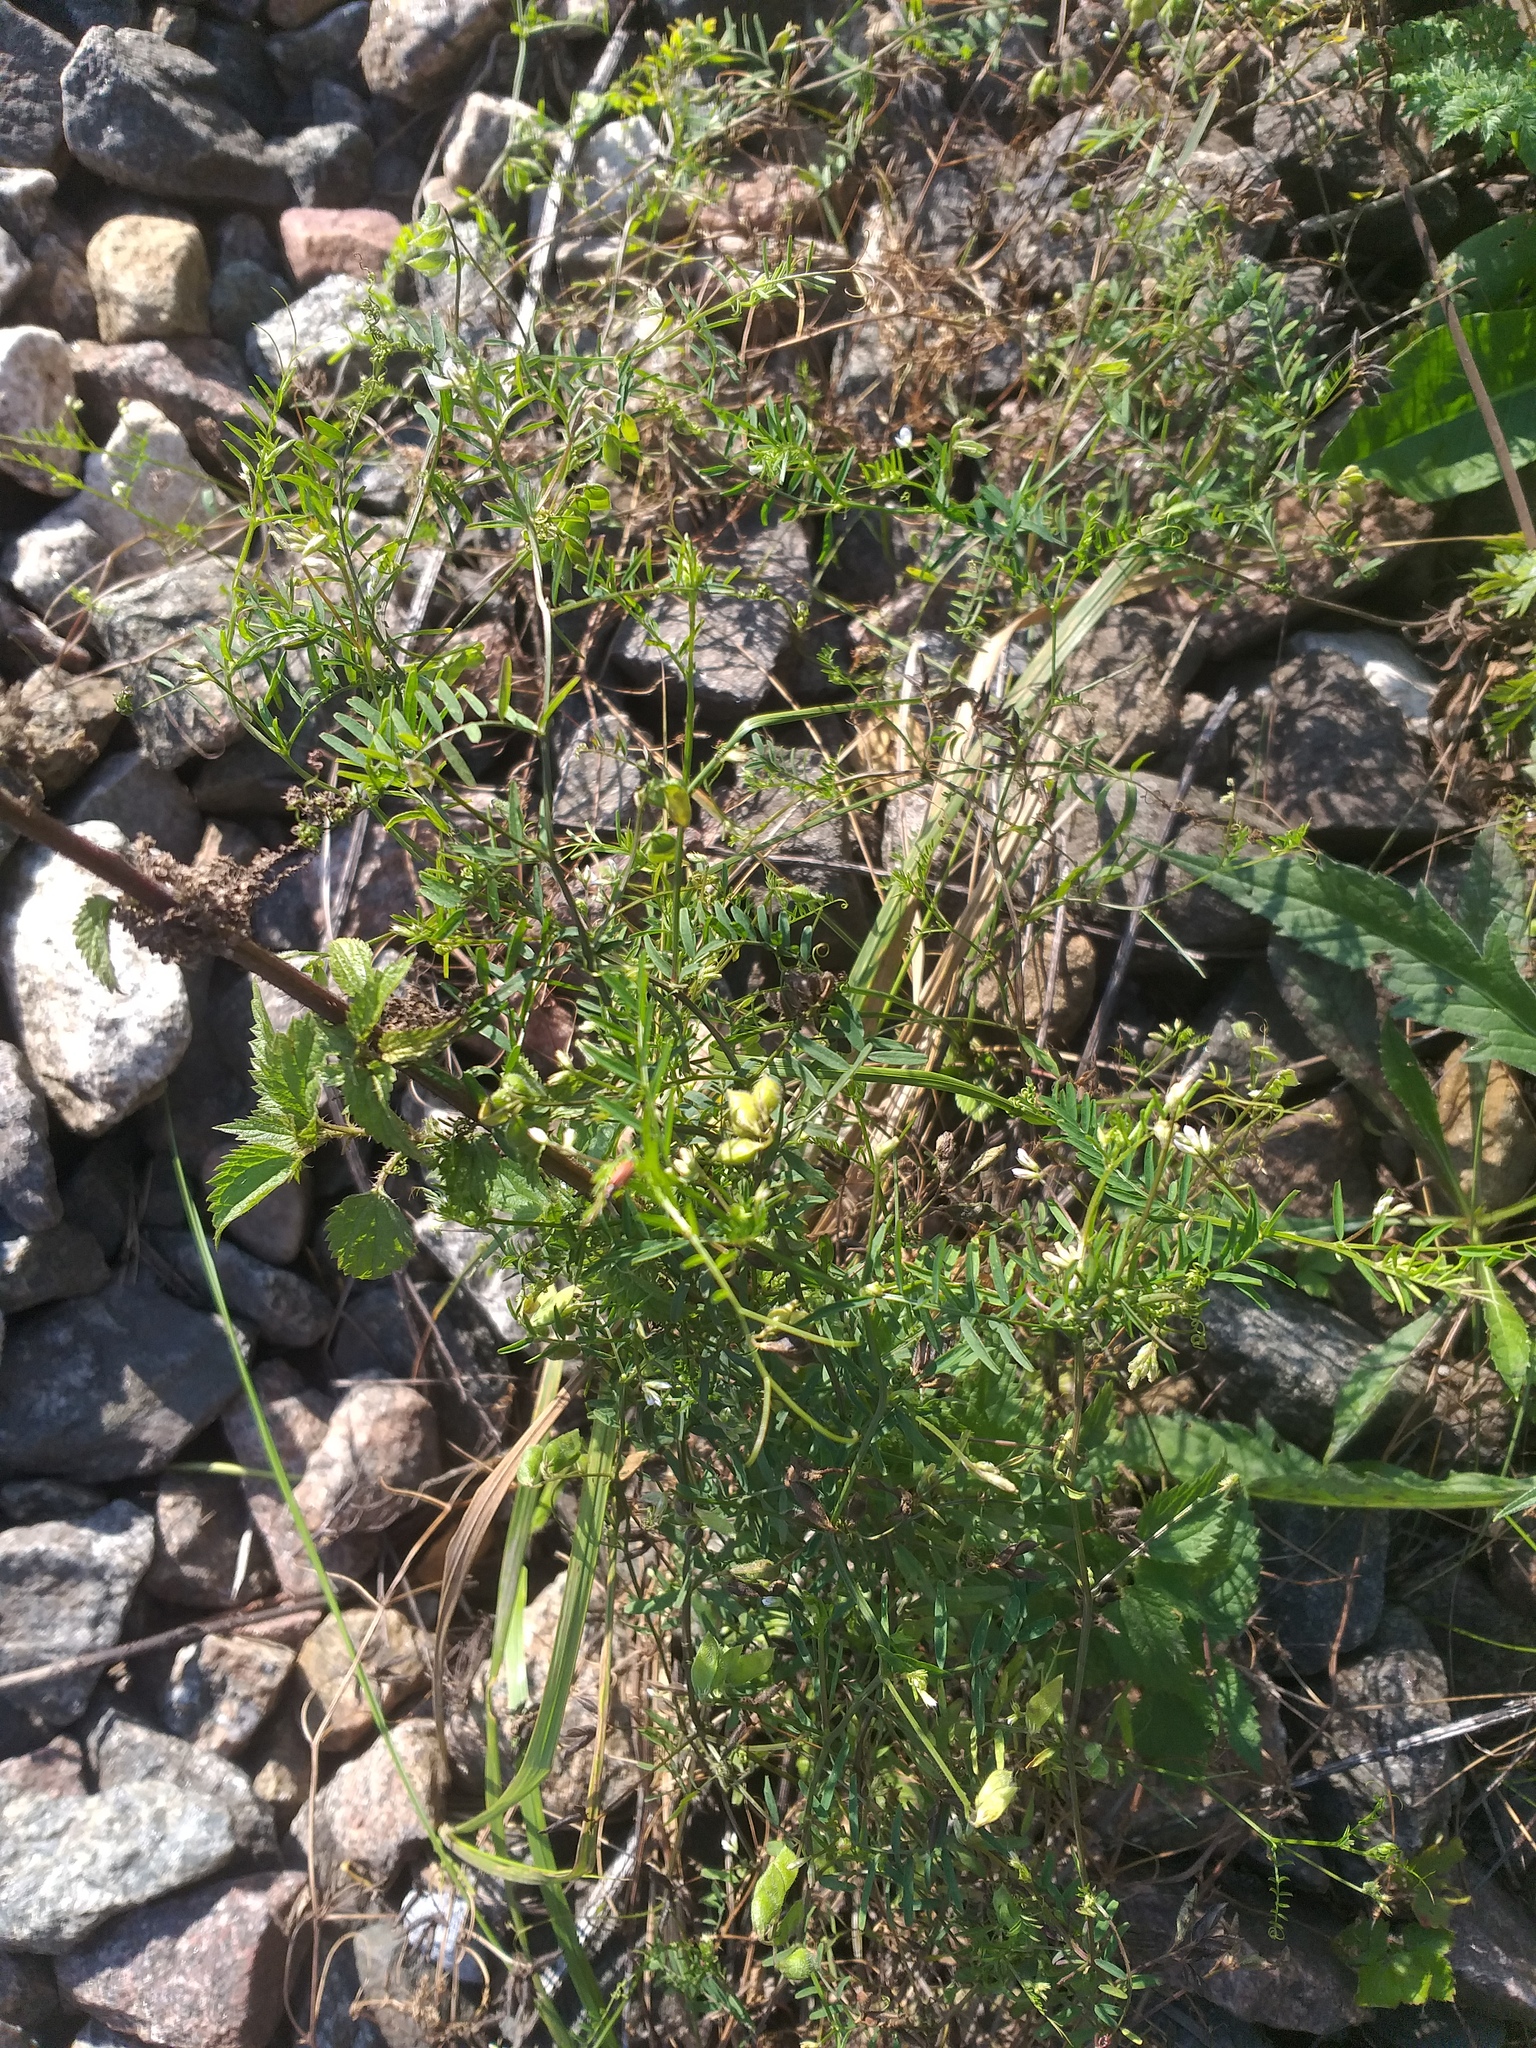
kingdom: Plantae
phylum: Tracheophyta
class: Magnoliopsida
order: Fabales
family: Fabaceae
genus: Vicia
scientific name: Vicia hirsuta
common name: Tiny vetch
